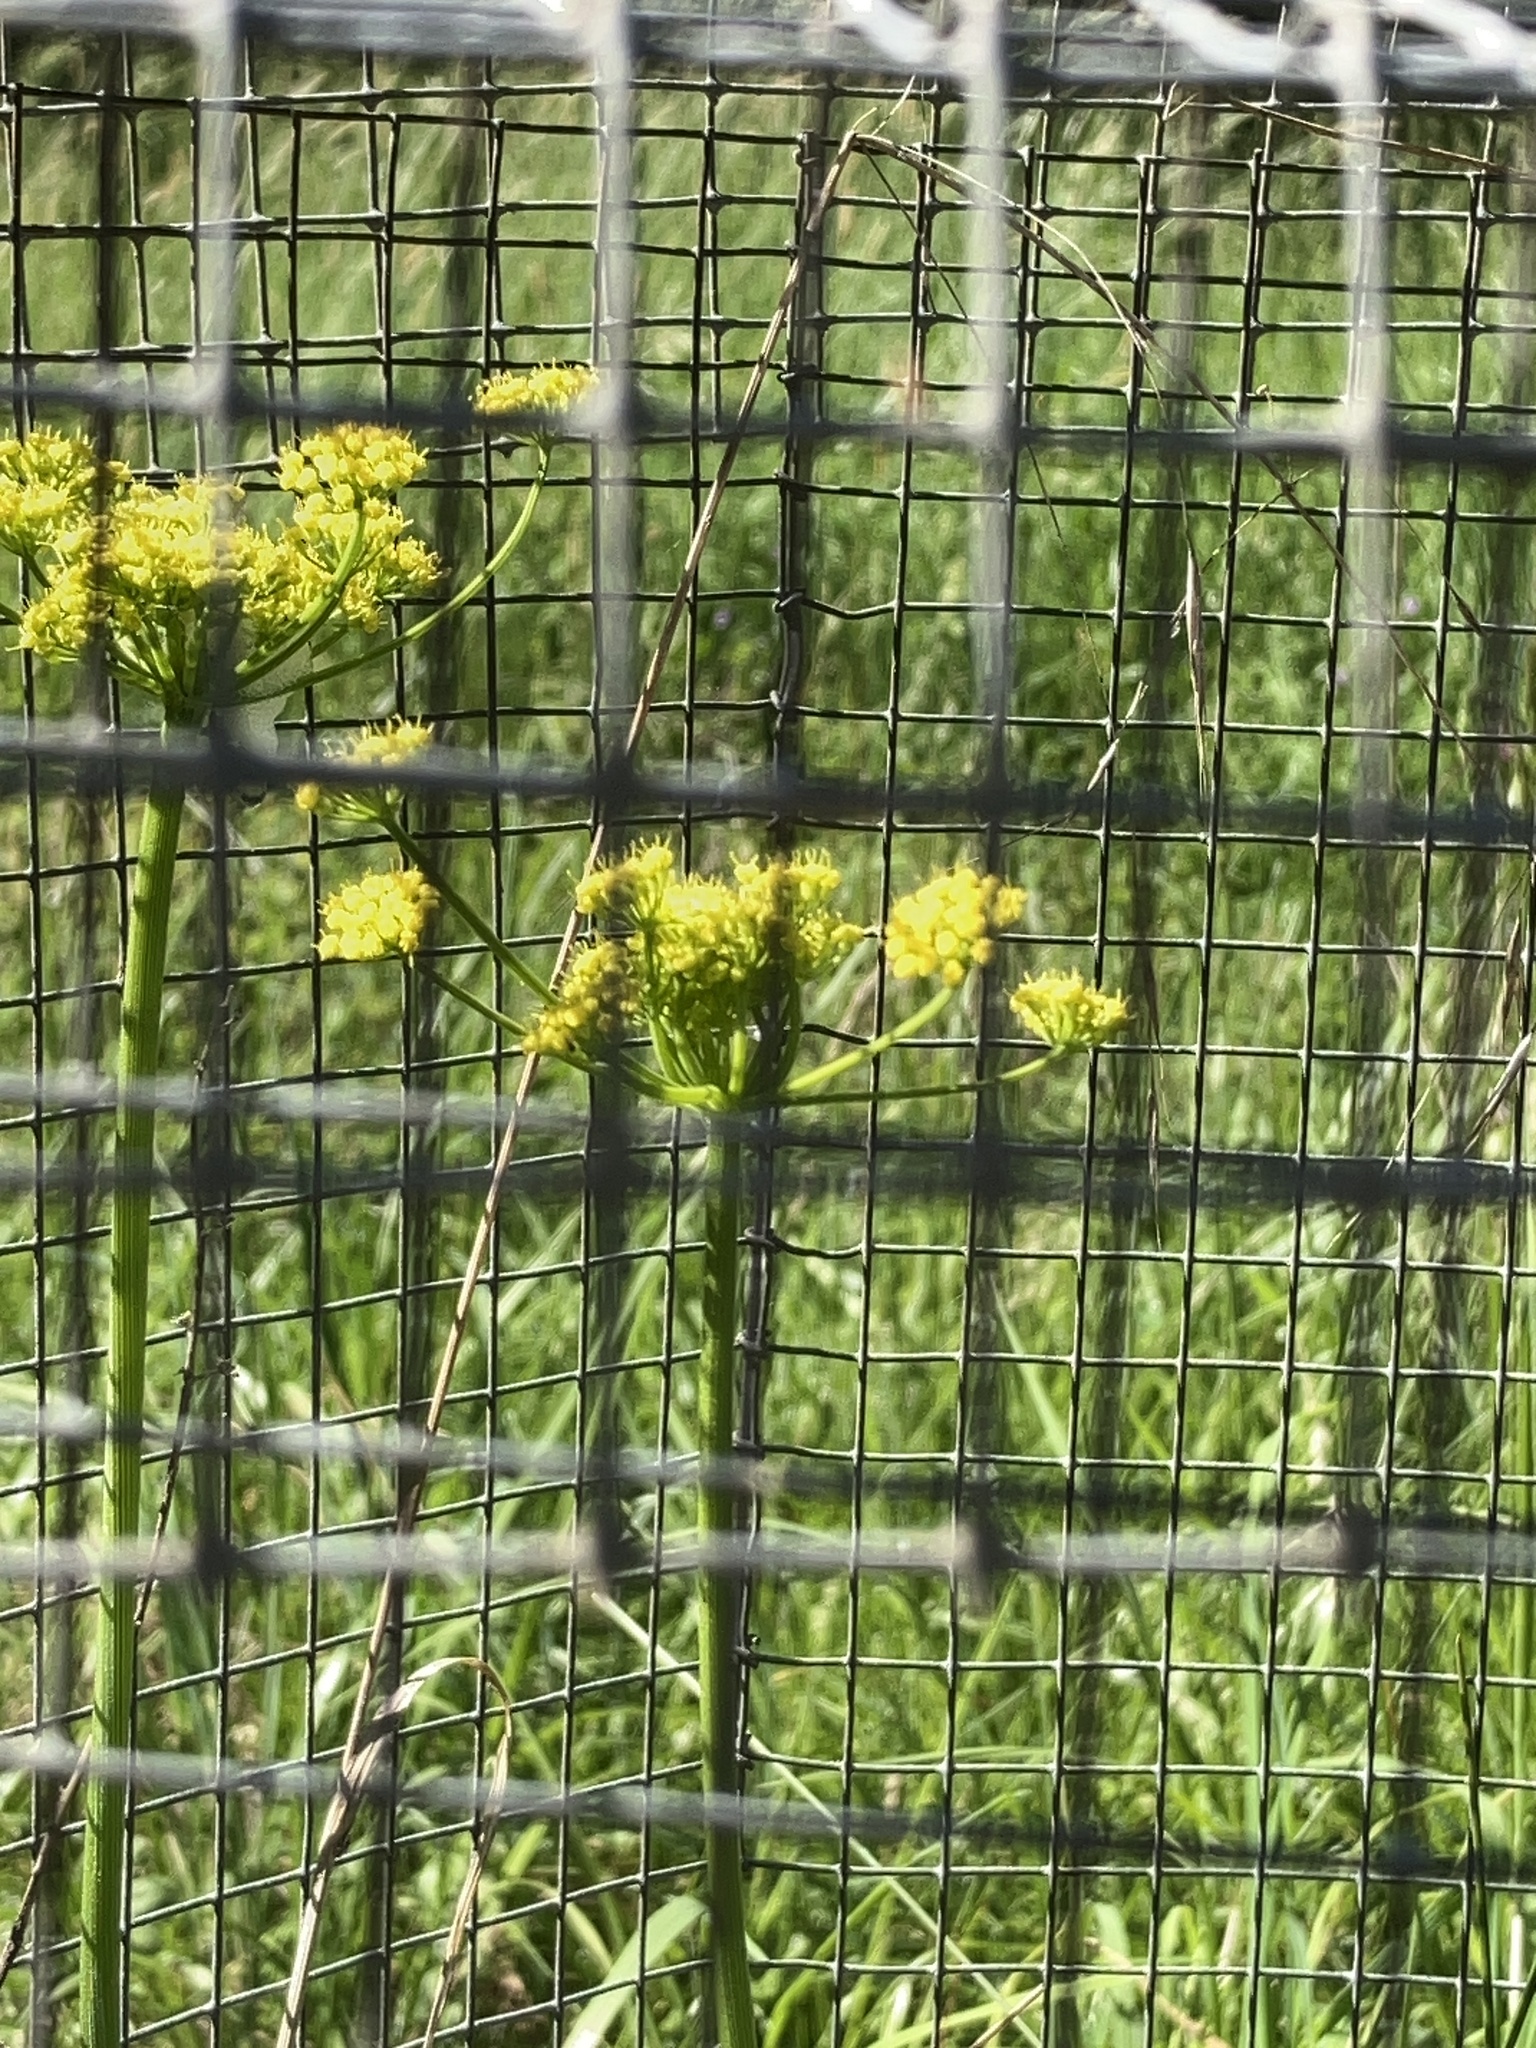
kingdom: Plantae
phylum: Tracheophyta
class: Magnoliopsida
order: Apiales
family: Apiaceae
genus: Lomatium
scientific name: Lomatium triternatum
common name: Ternate lomatium
